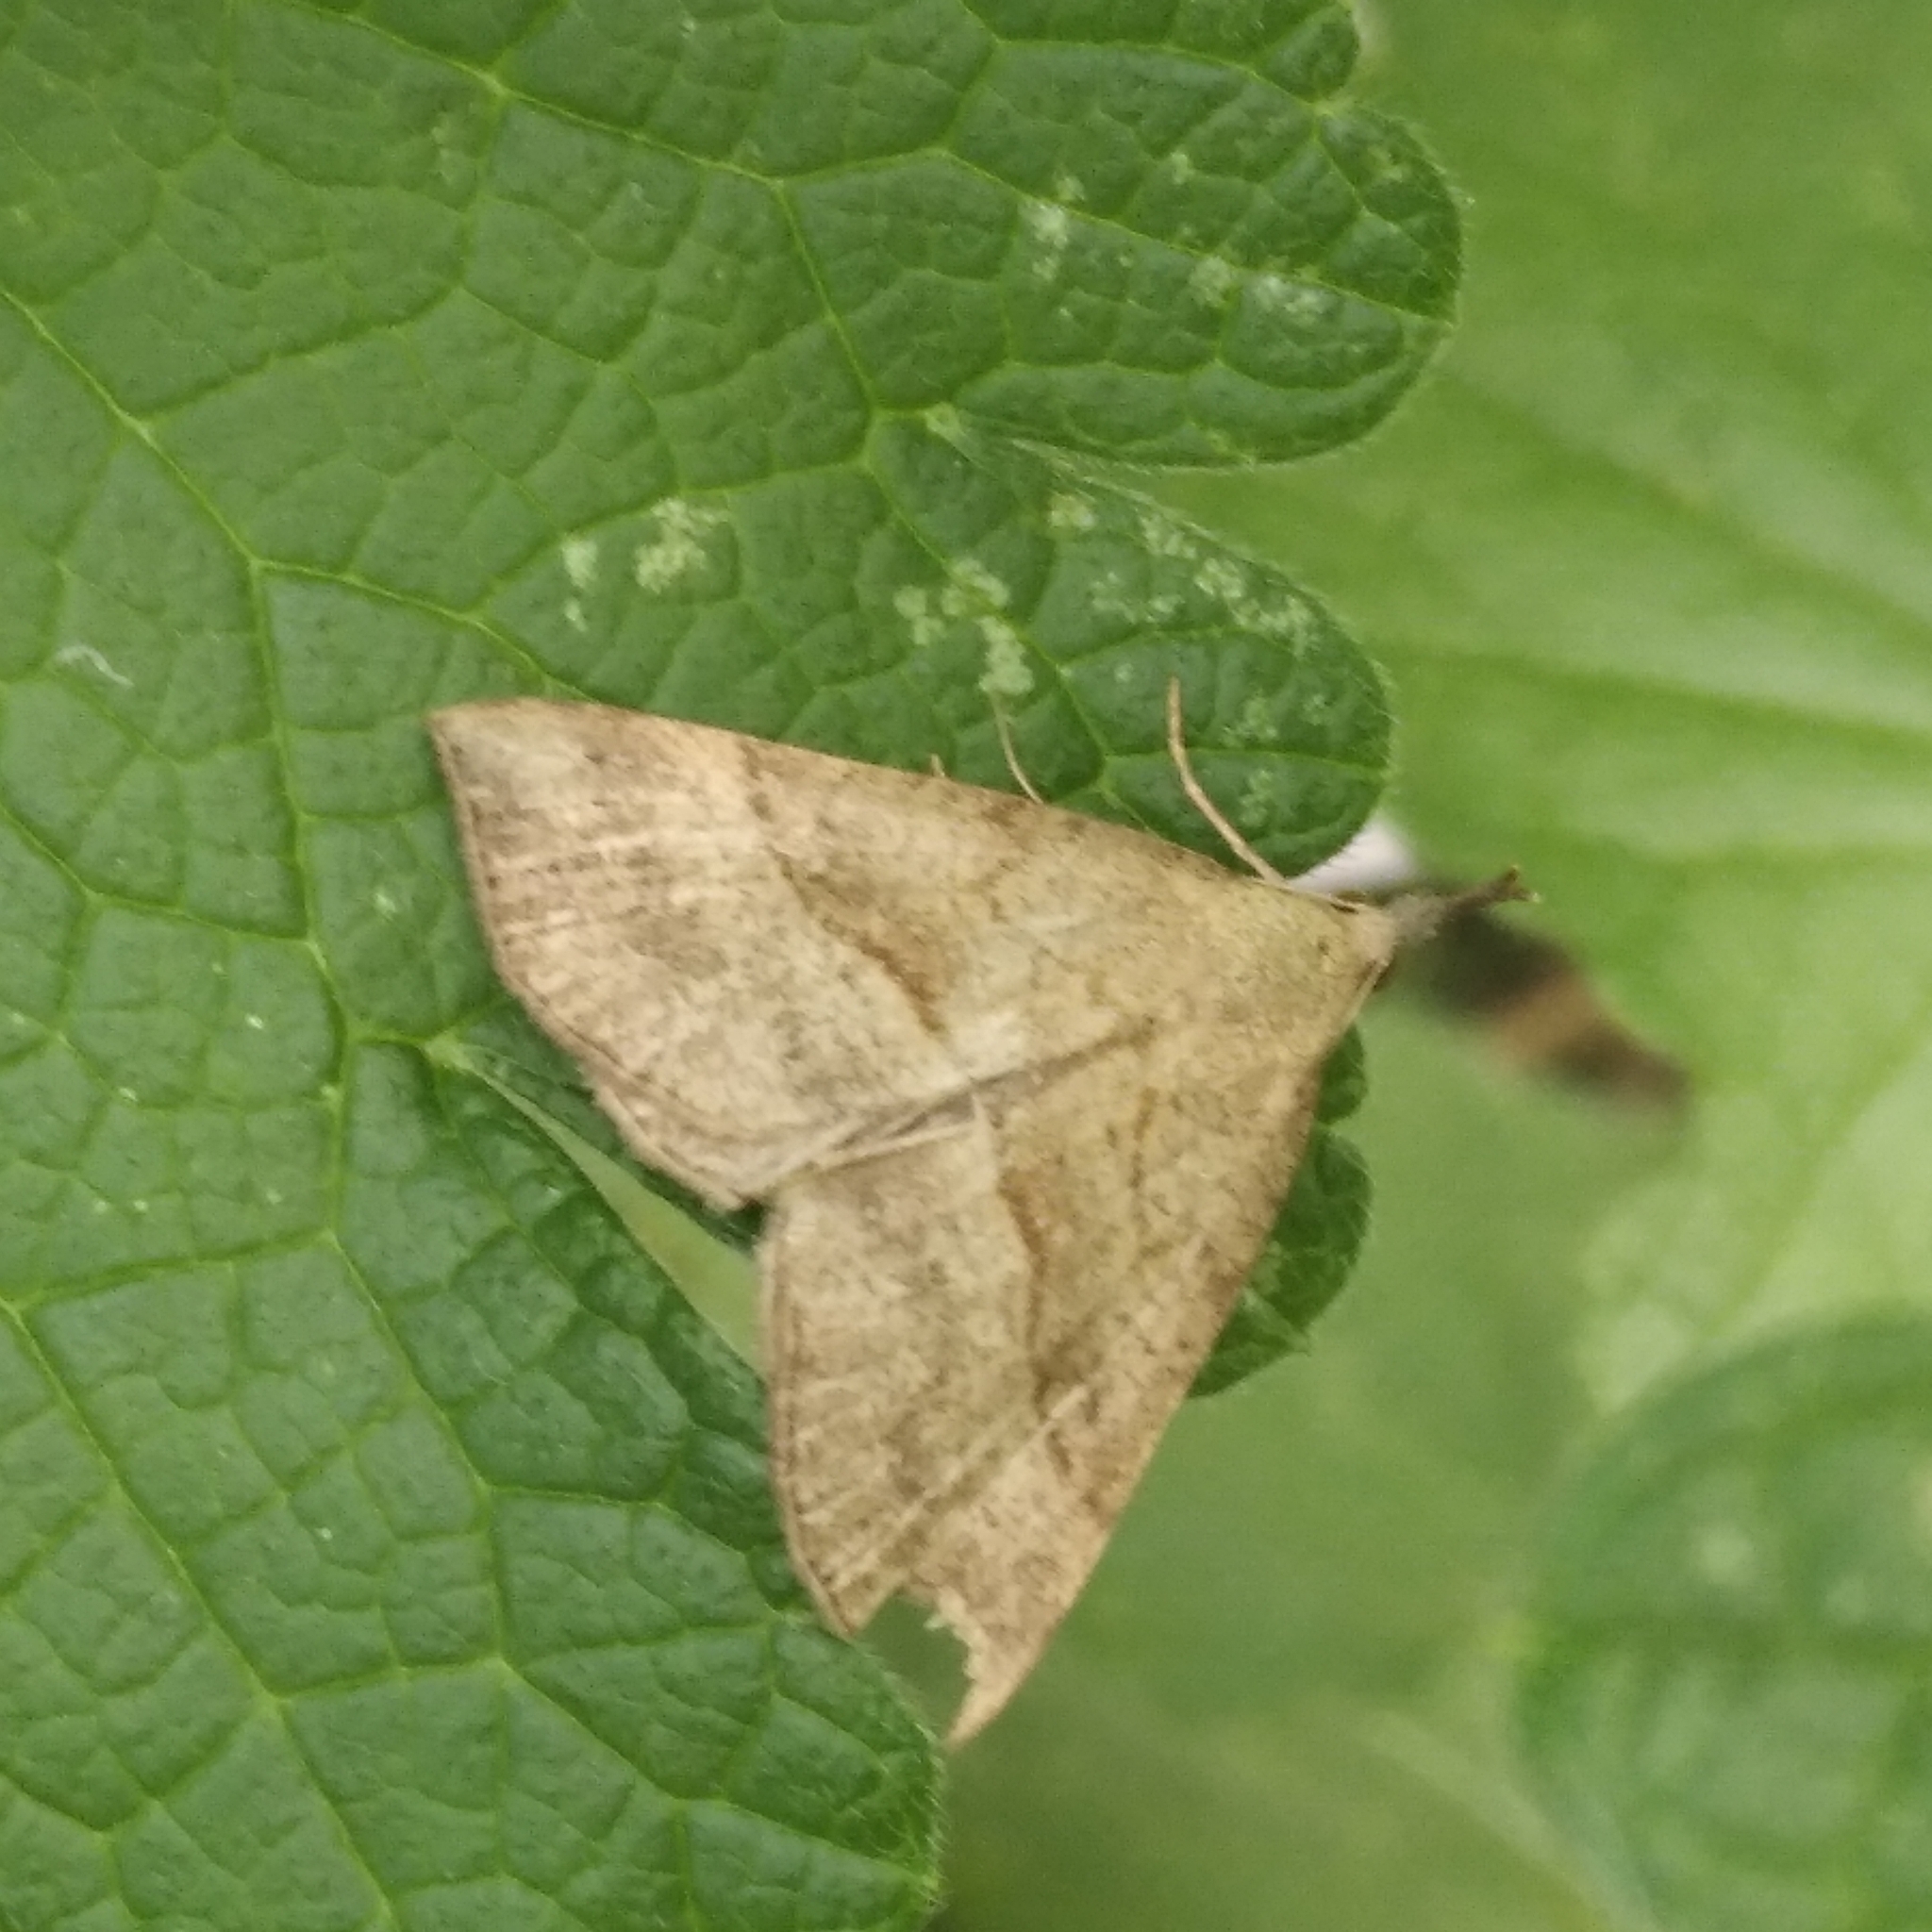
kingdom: Animalia
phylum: Arthropoda
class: Insecta
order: Lepidoptera
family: Erebidae
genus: Hypena
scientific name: Hypena proboscidalis
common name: Snout
